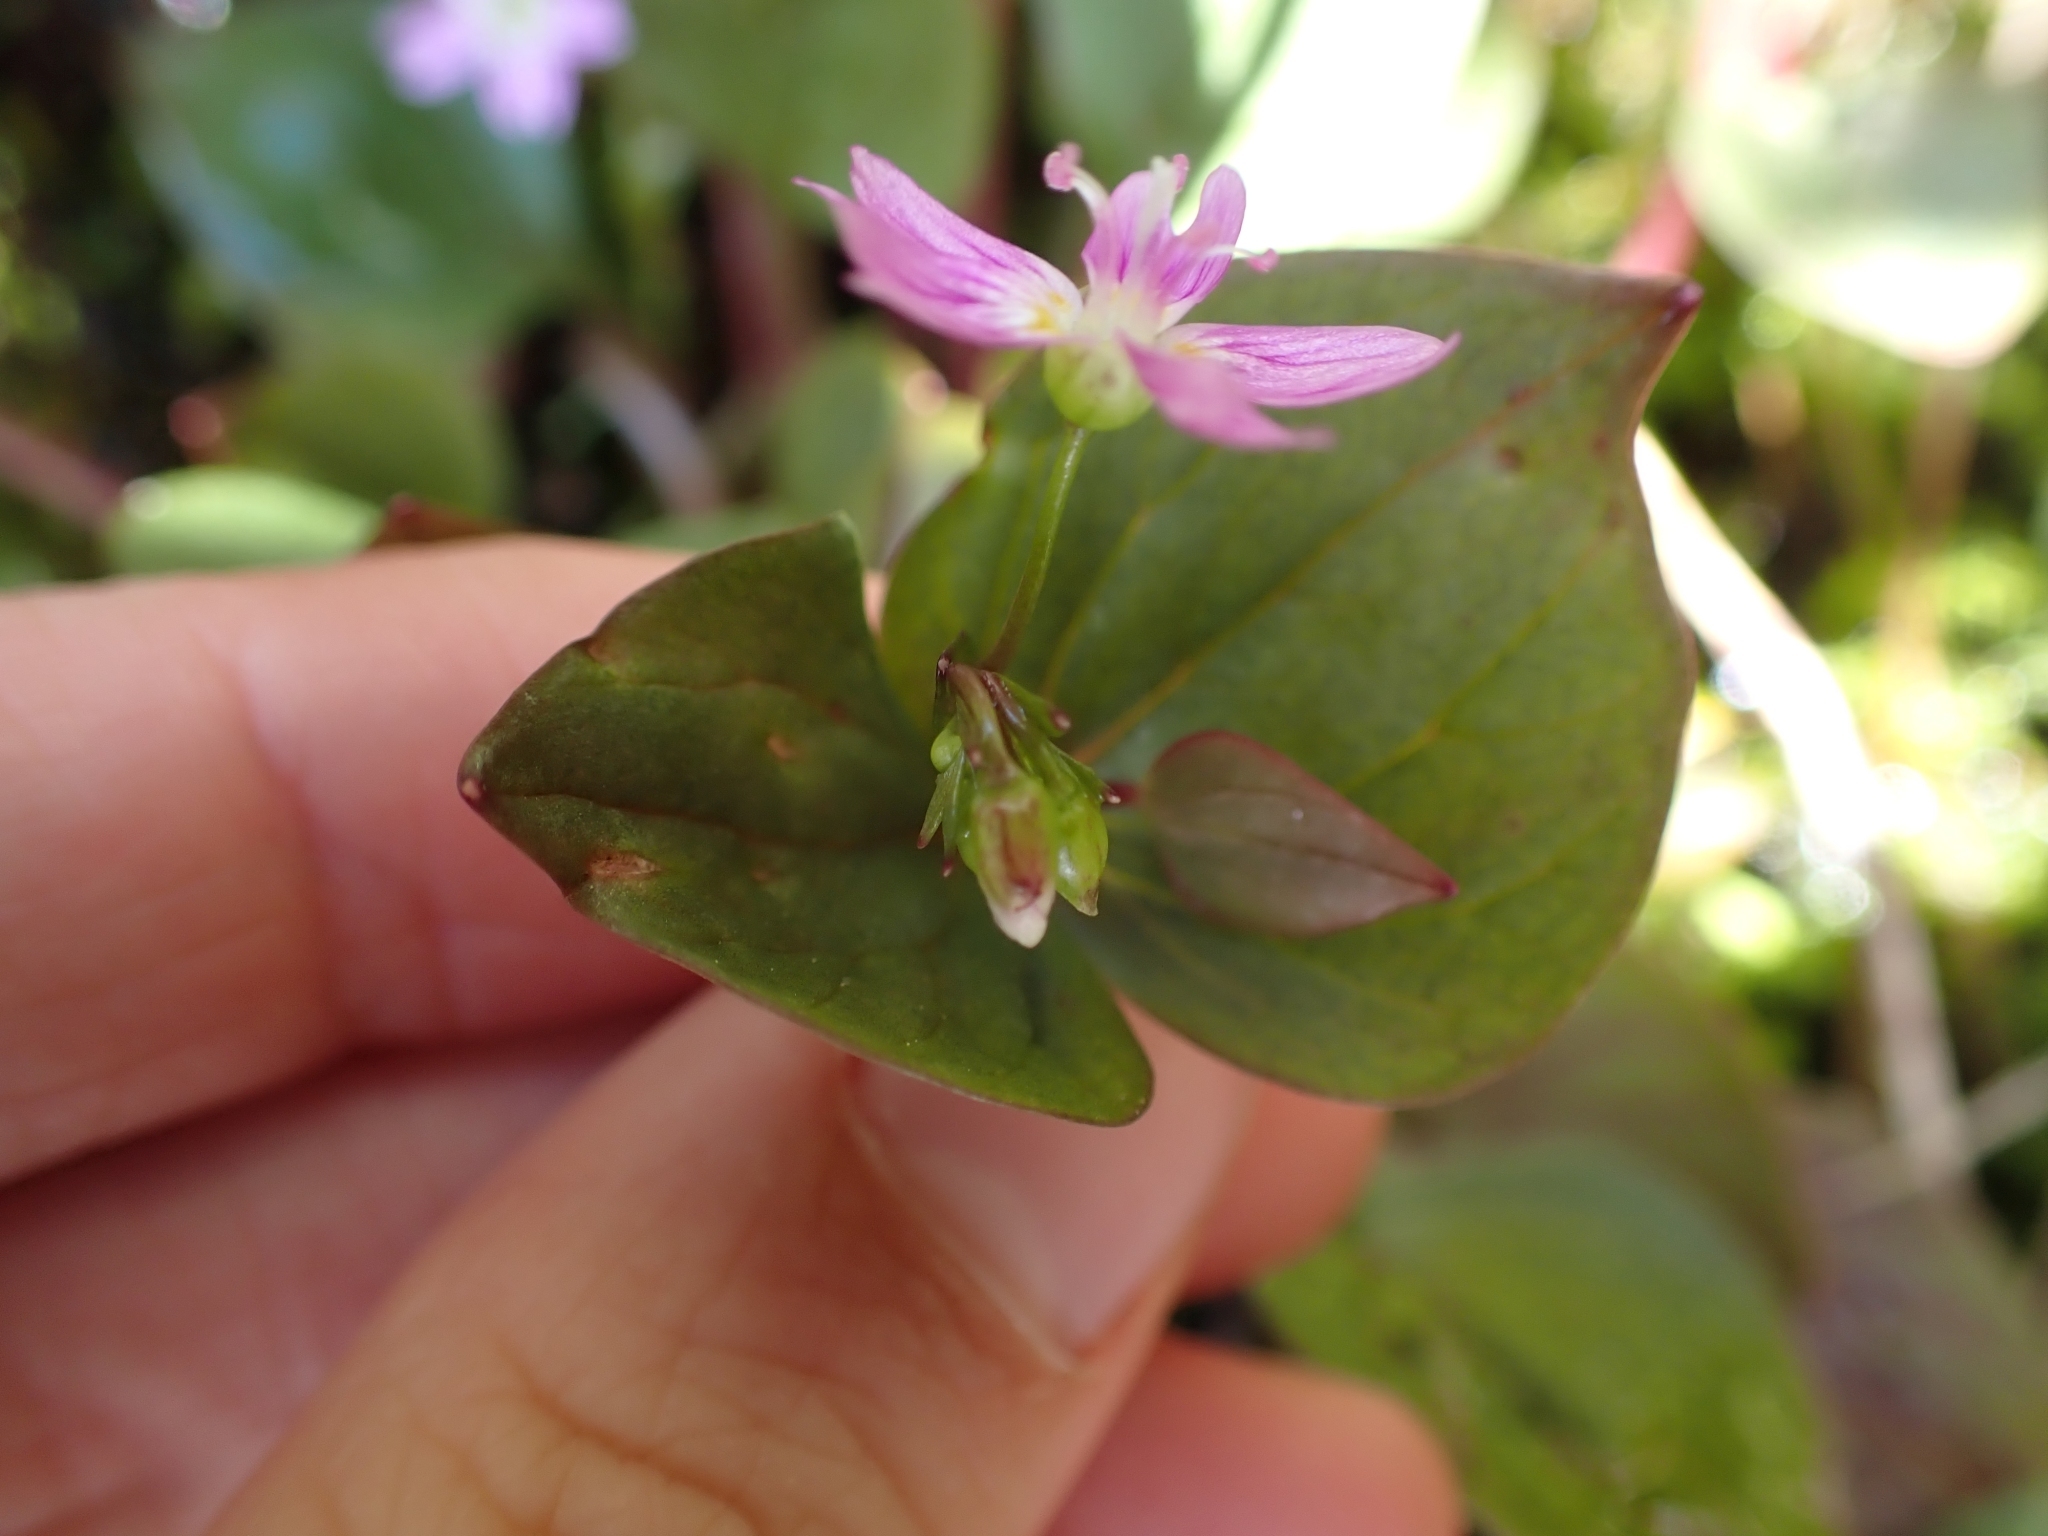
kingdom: Plantae
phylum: Tracheophyta
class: Magnoliopsida
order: Caryophyllales
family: Montiaceae
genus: Claytonia
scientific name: Claytonia sibirica
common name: Pink purslane
